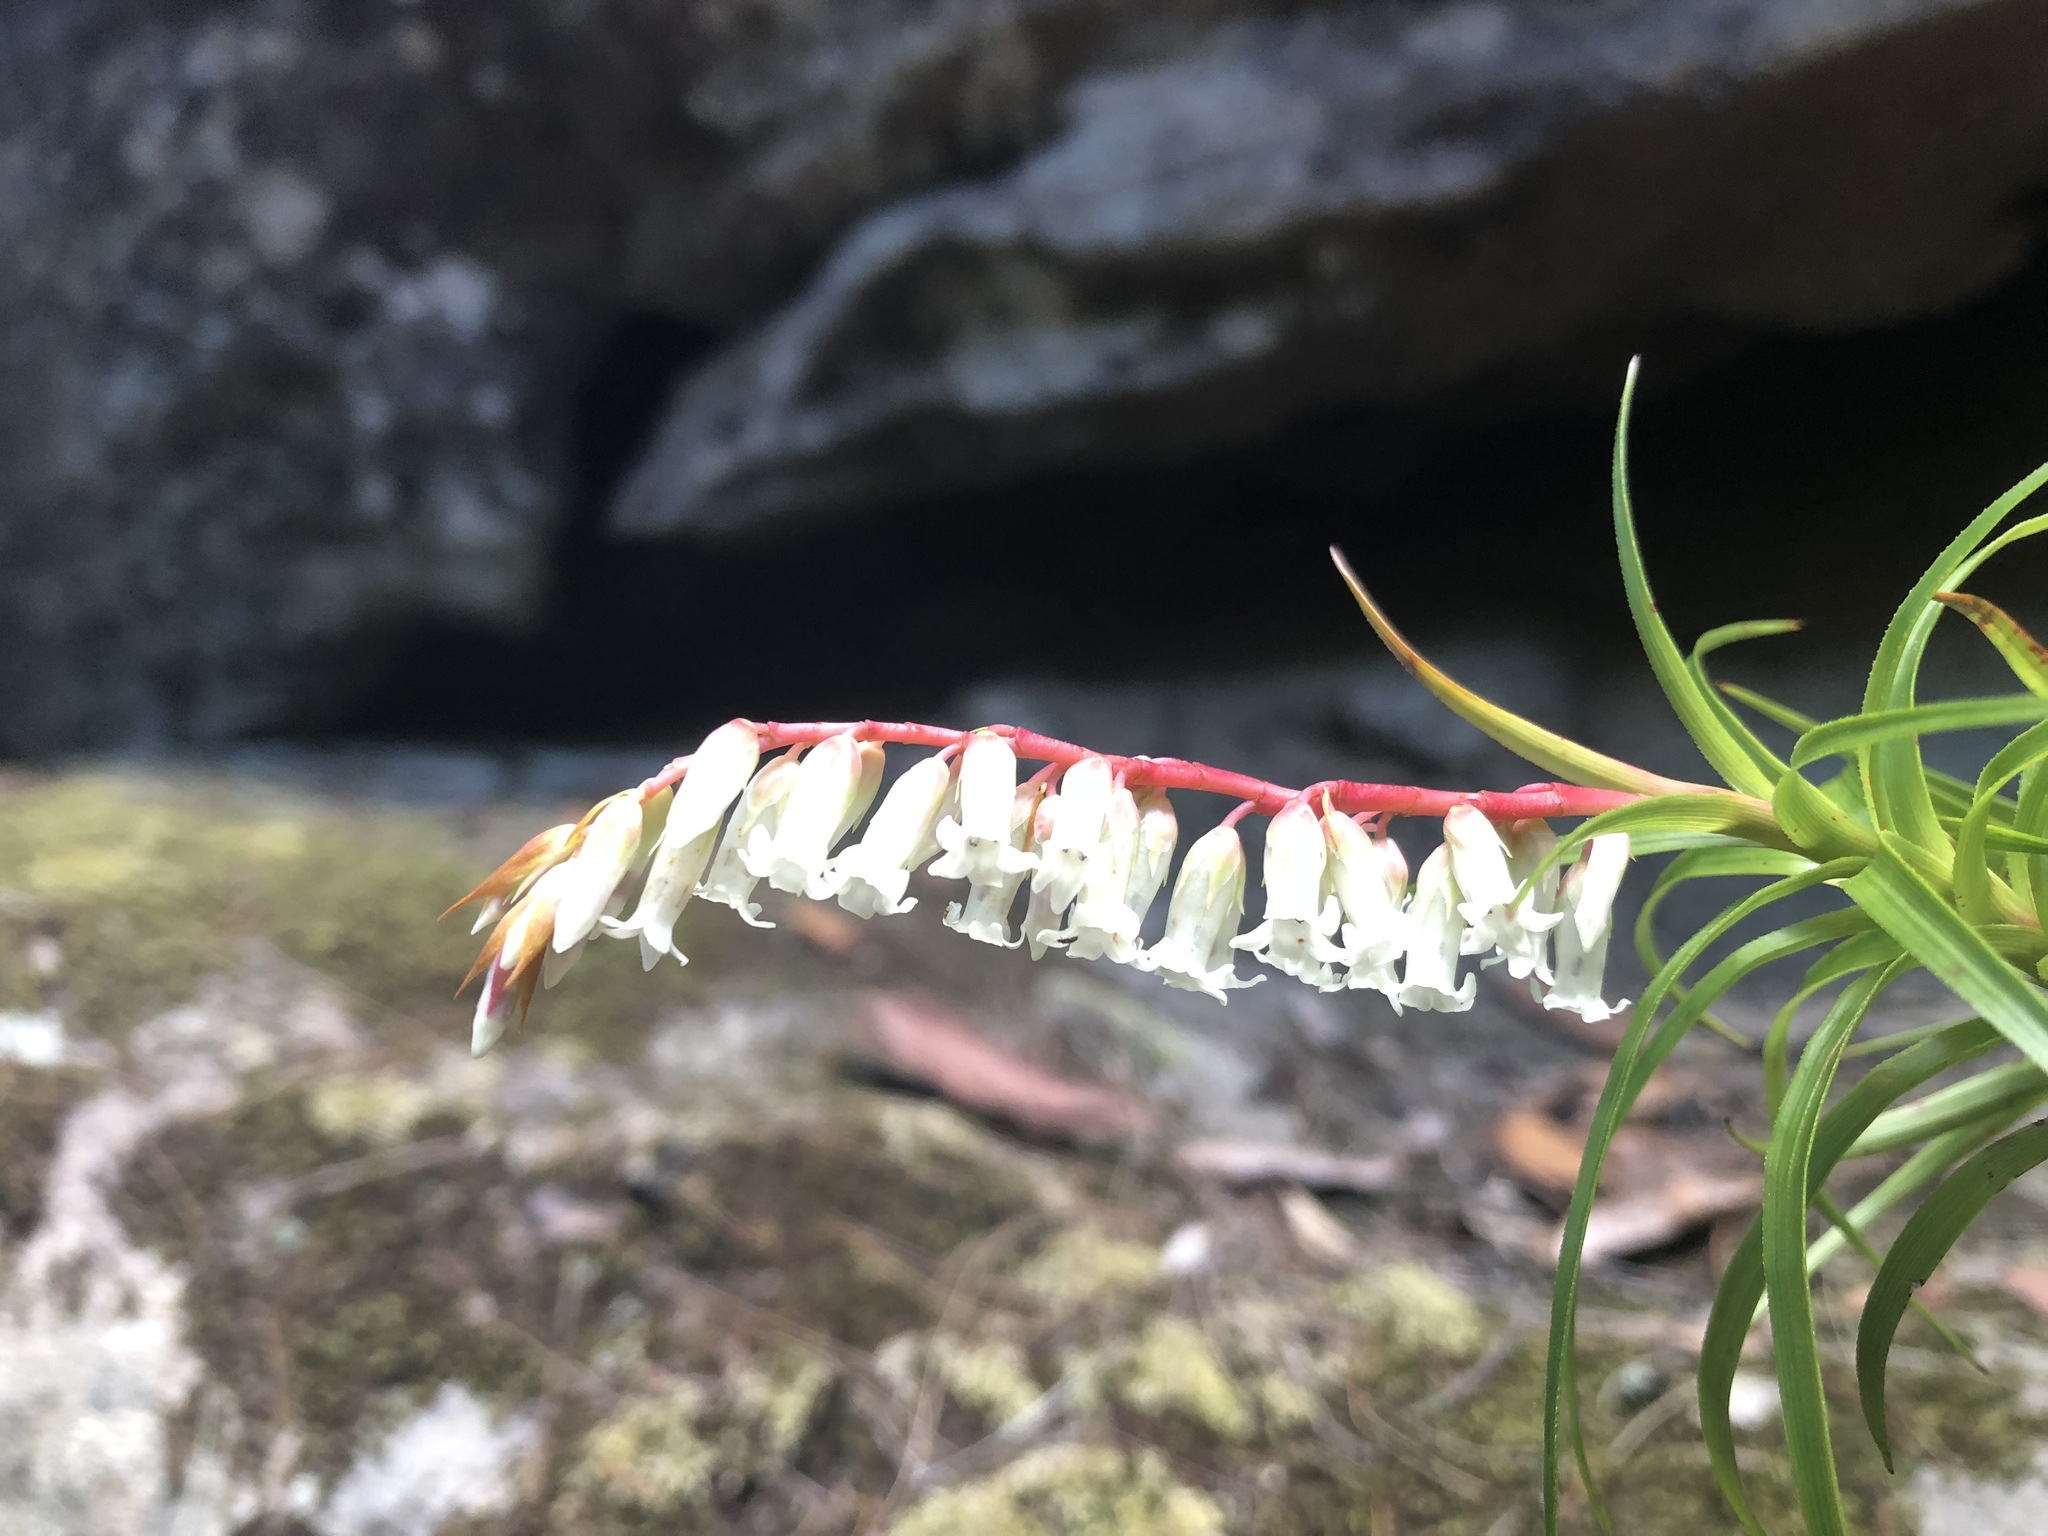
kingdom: Plantae
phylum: Tracheophyta
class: Magnoliopsida
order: Ericales
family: Ericaceae
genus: Dracophyllum
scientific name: Dracophyllum secundum
